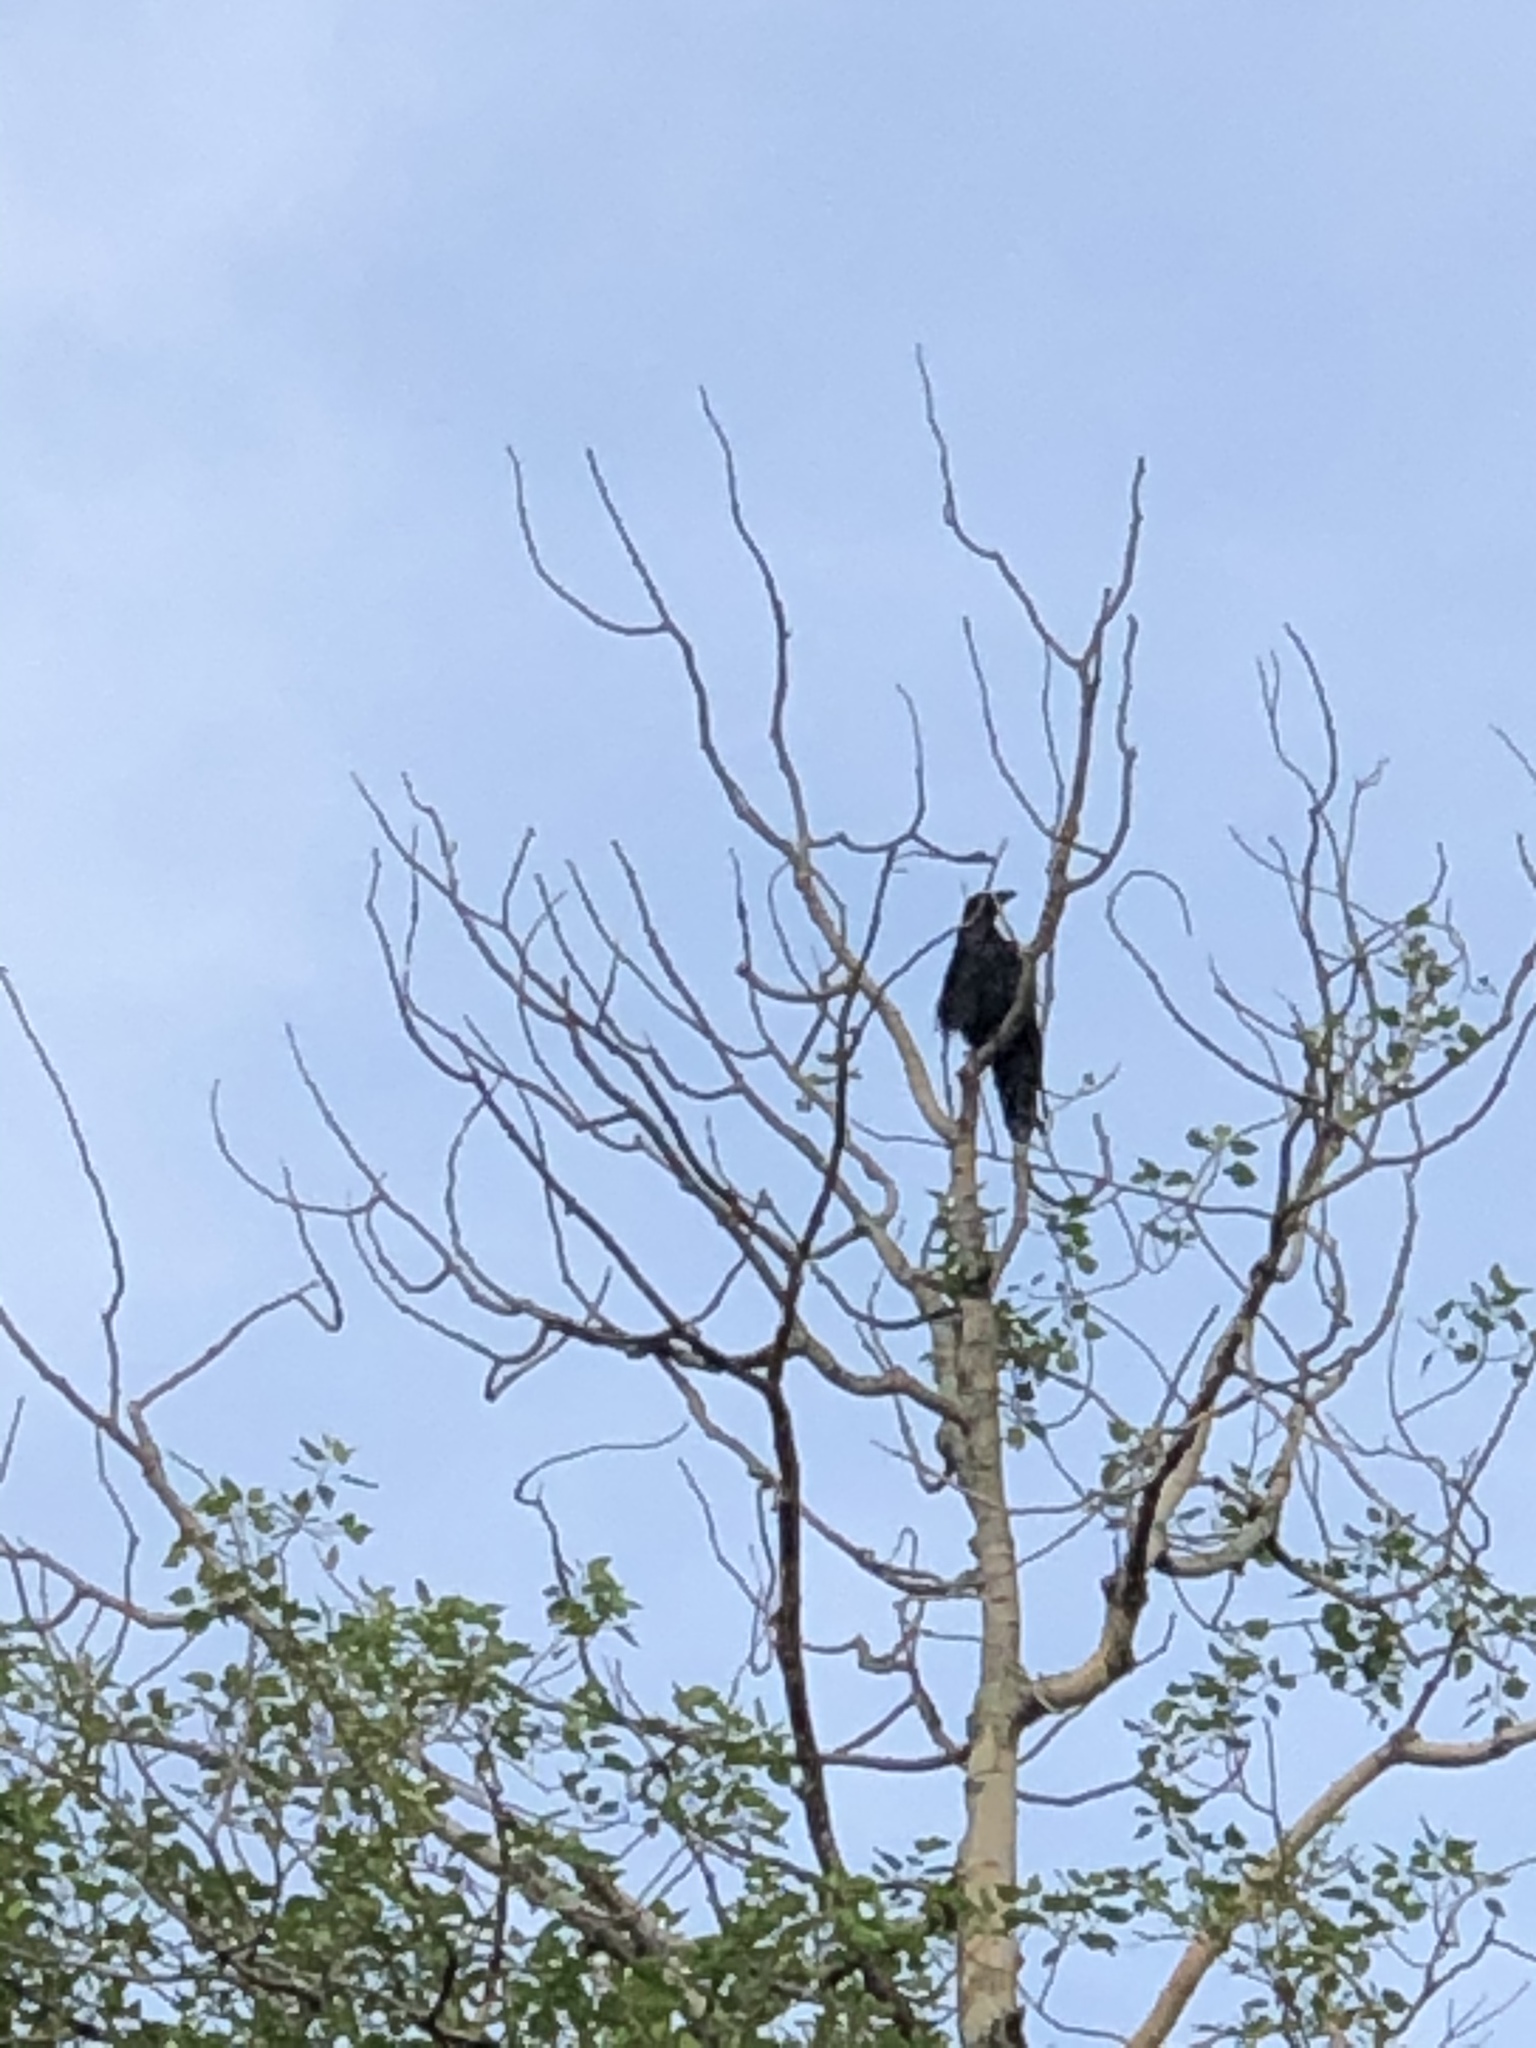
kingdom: Animalia
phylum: Chordata
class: Aves
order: Passeriformes
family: Corvidae
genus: Corvus
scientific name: Corvus corax
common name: Common raven
